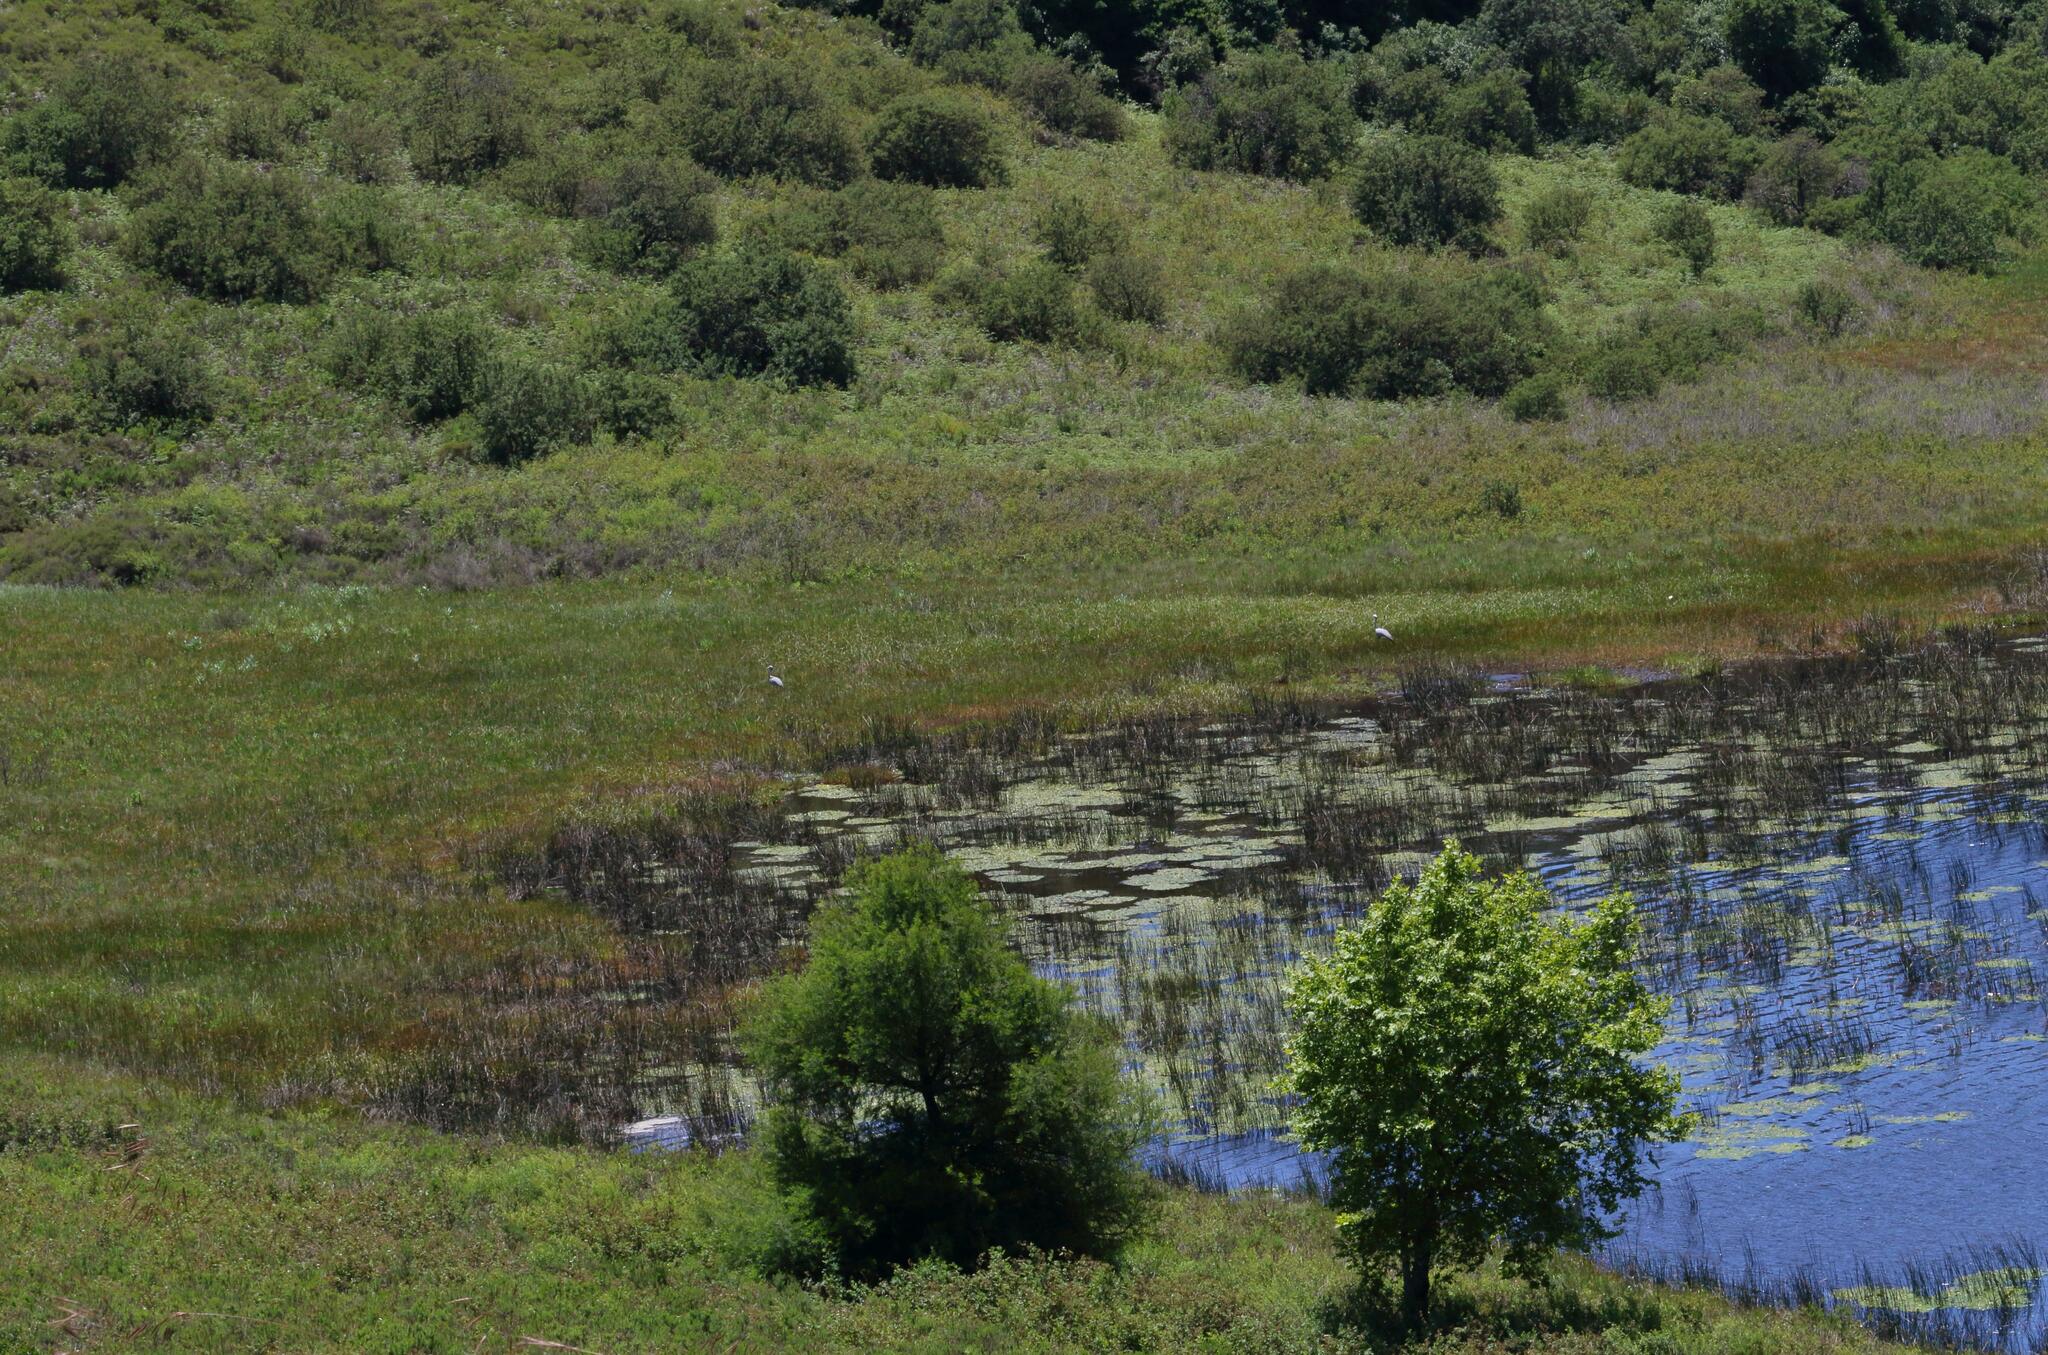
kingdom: Animalia
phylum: Chordata
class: Aves
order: Gruiformes
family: Gruidae
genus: Anthropoides
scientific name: Anthropoides paradiseus
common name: Blue crane
